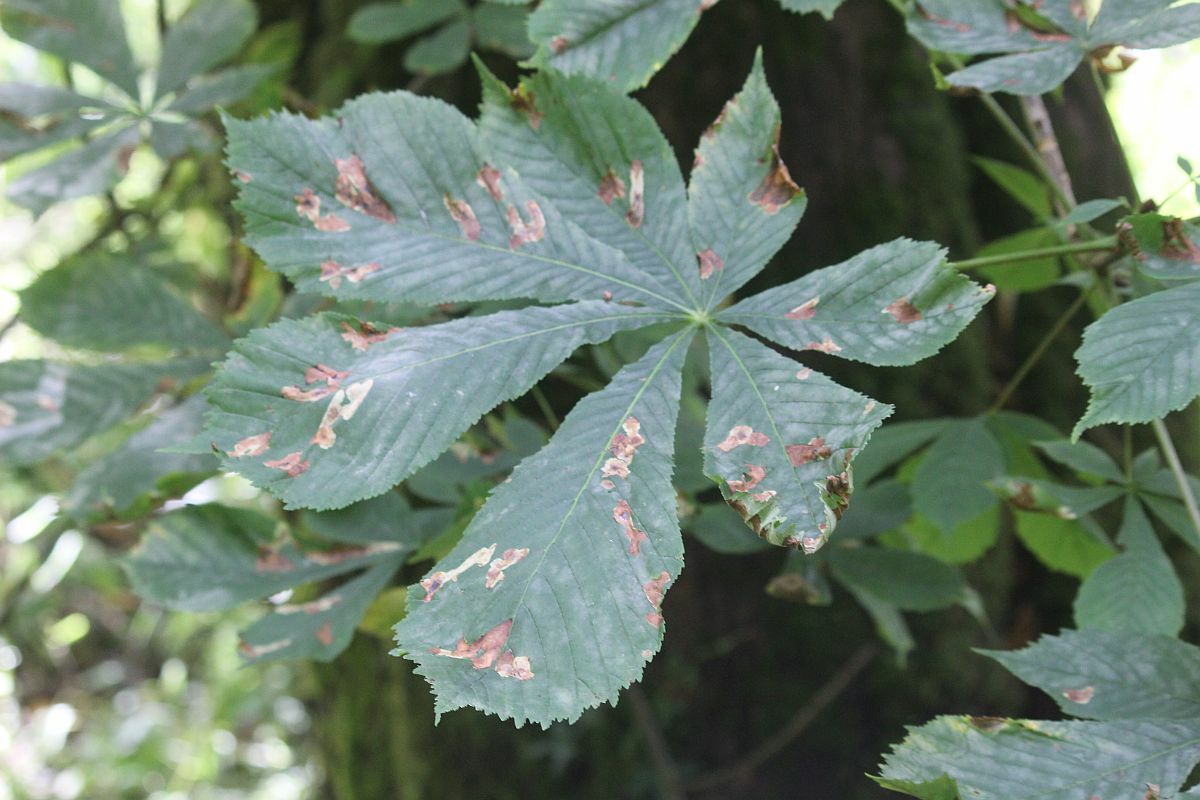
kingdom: Plantae
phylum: Tracheophyta
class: Magnoliopsida
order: Sapindales
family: Sapindaceae
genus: Aesculus
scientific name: Aesculus hippocastanum
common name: Horse-chestnut
